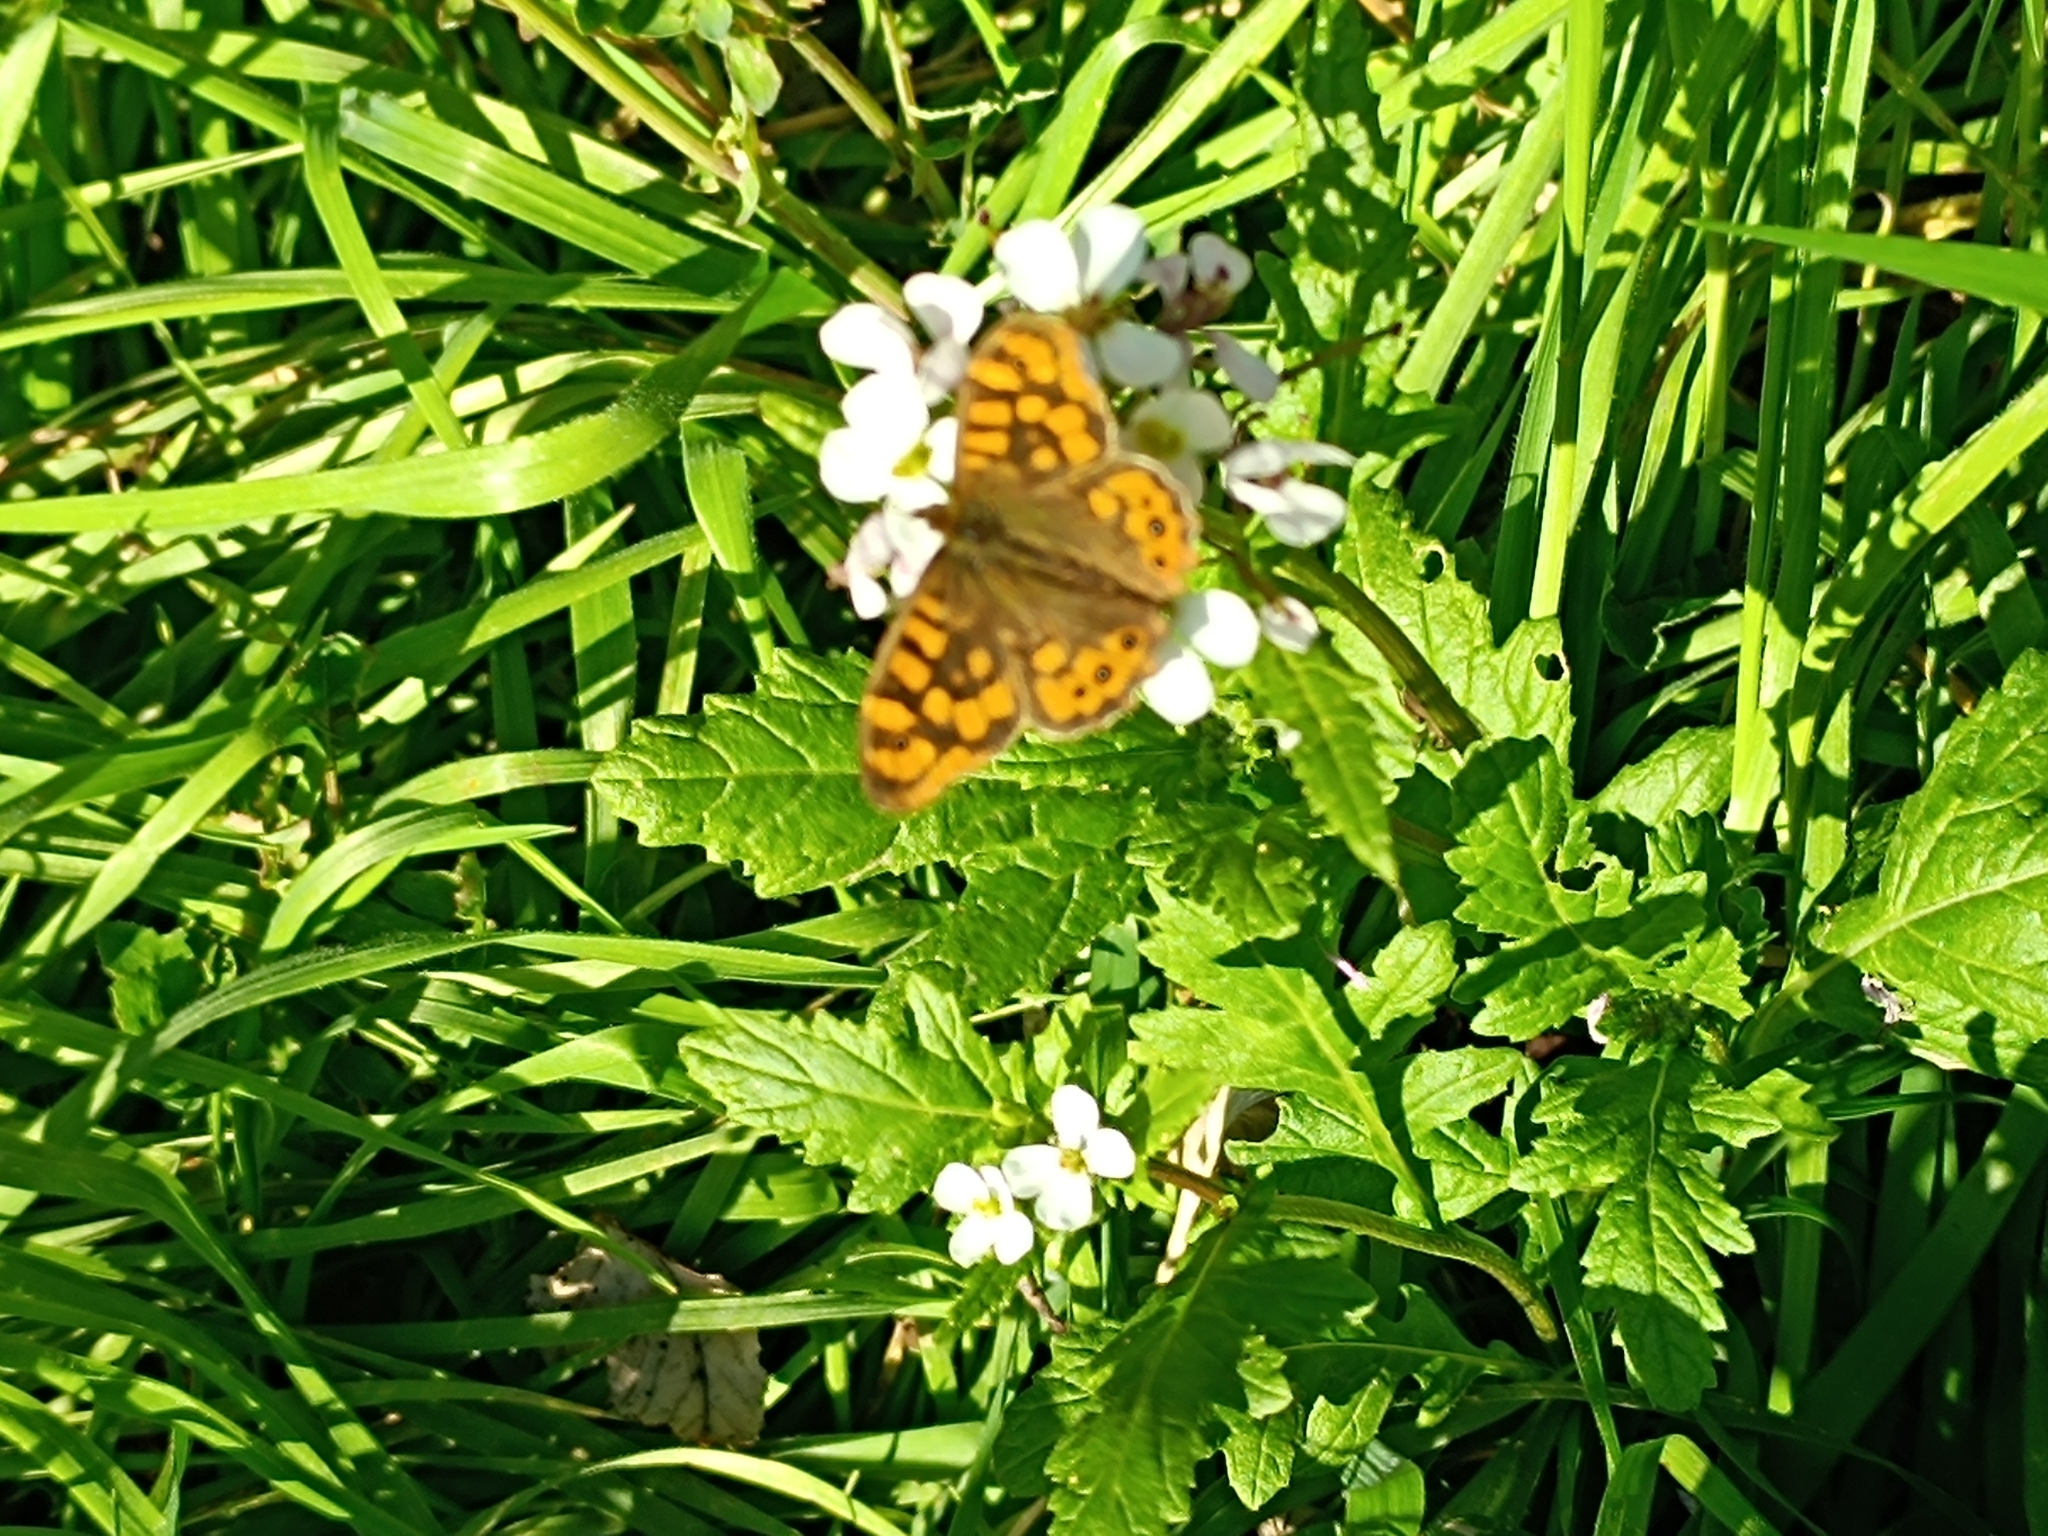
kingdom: Animalia
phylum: Arthropoda
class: Insecta
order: Lepidoptera
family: Nymphalidae
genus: Pararge
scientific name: Pararge aegeria
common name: Speckled wood
